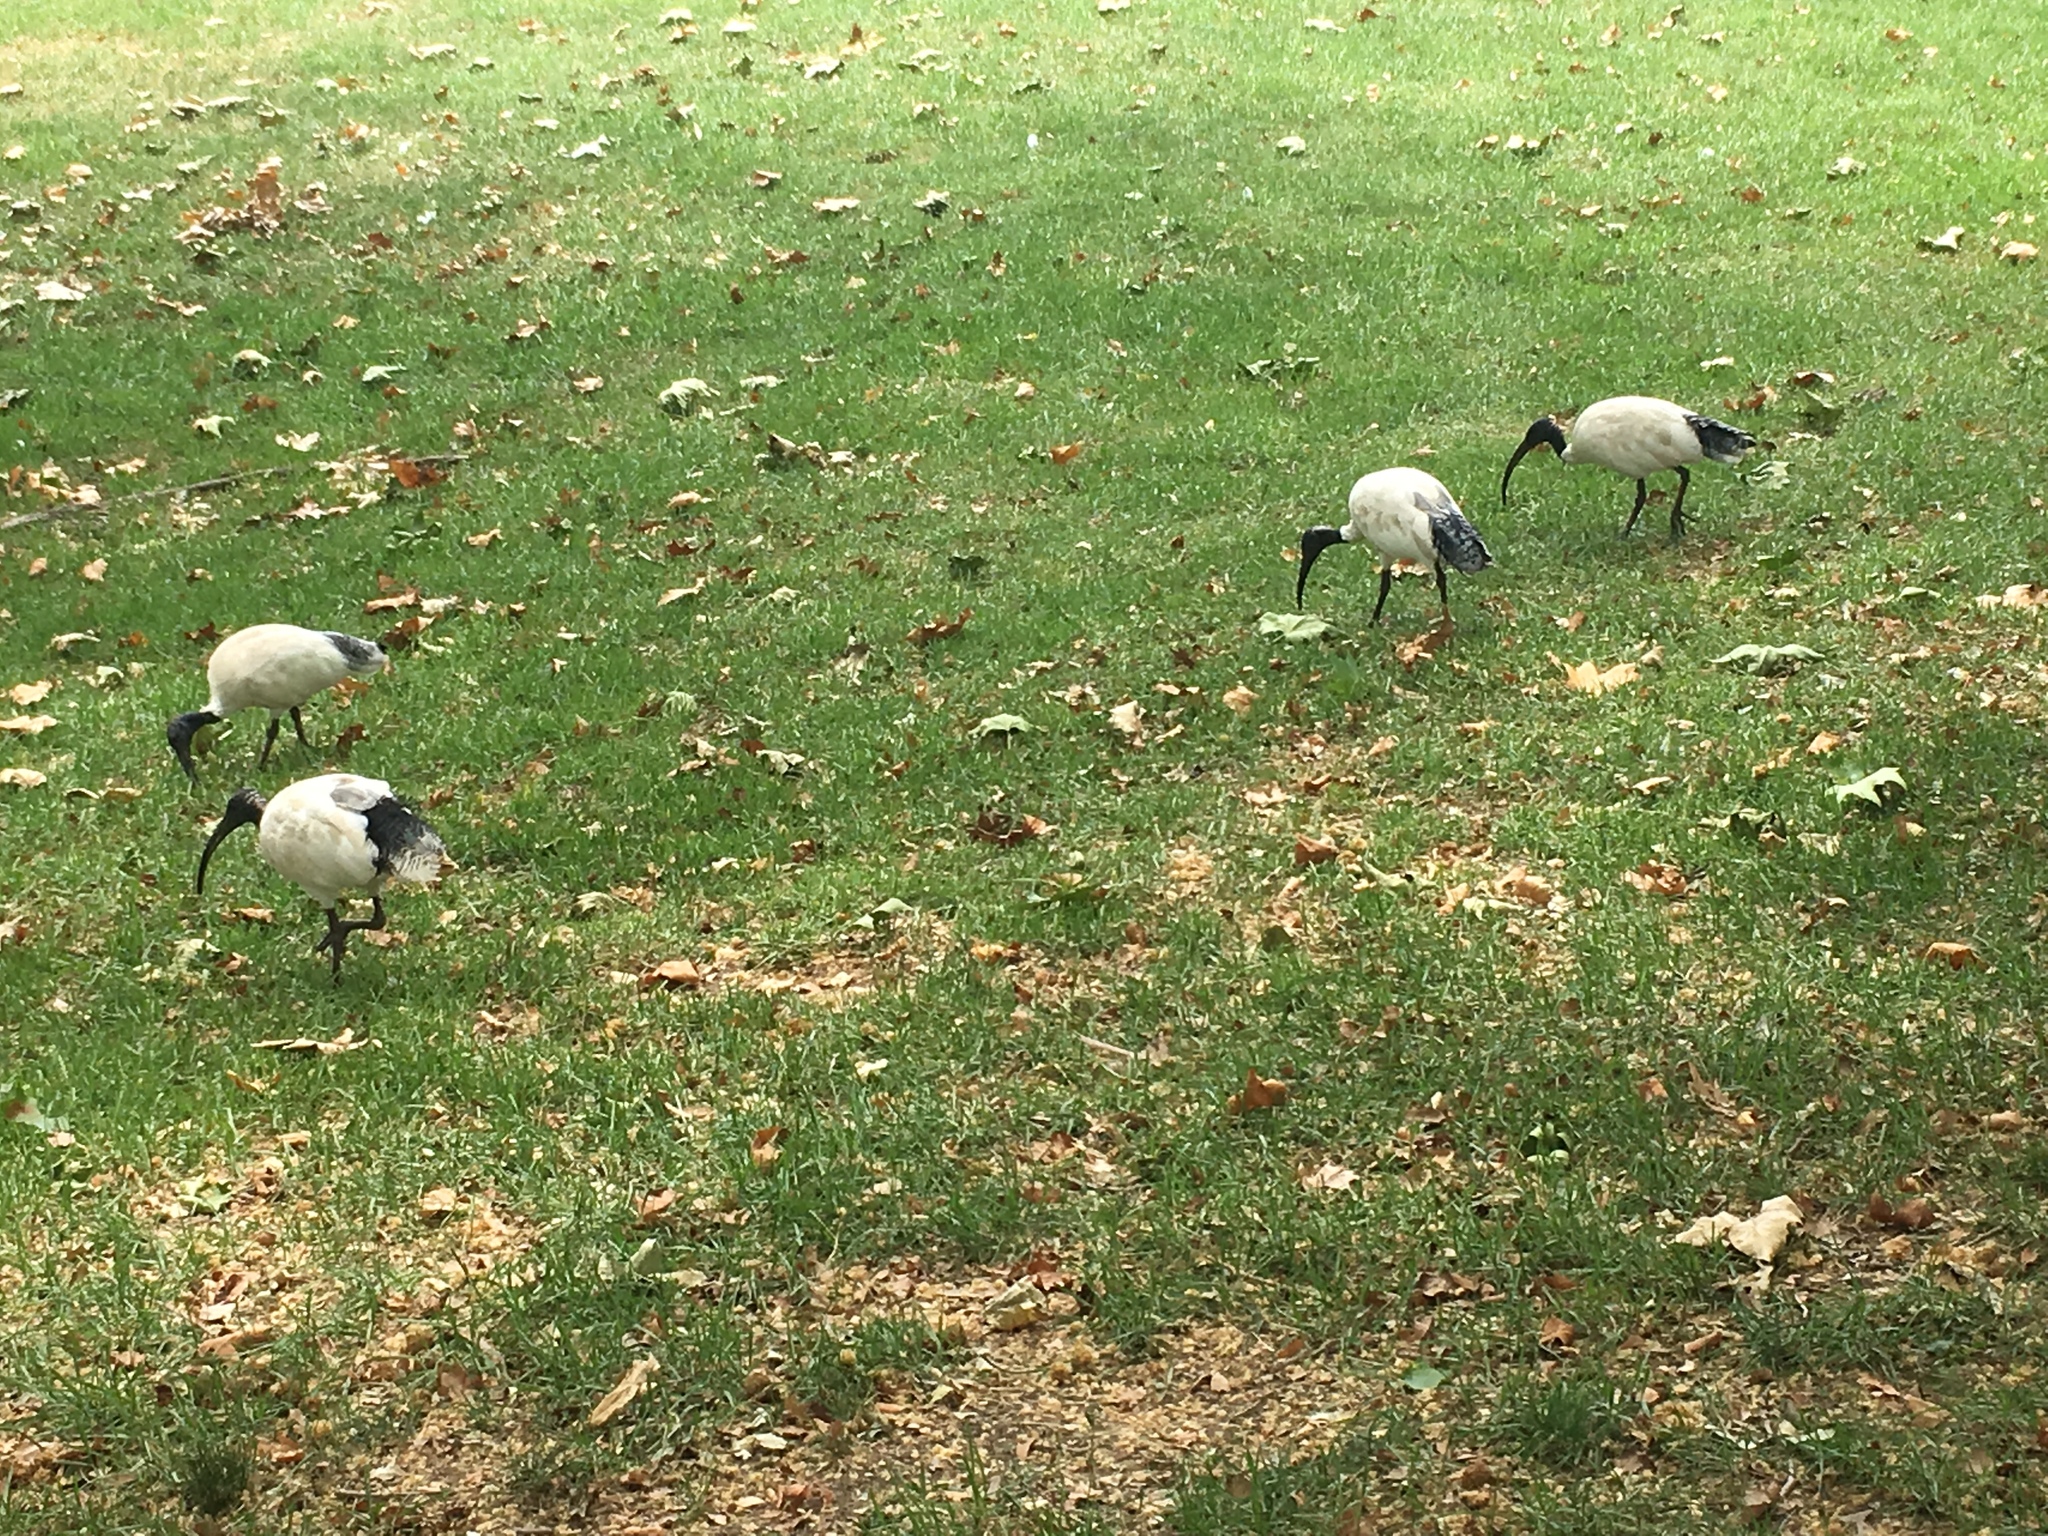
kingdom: Animalia
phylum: Chordata
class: Aves
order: Pelecaniformes
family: Threskiornithidae
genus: Threskiornis
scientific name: Threskiornis molucca
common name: Australian white ibis
